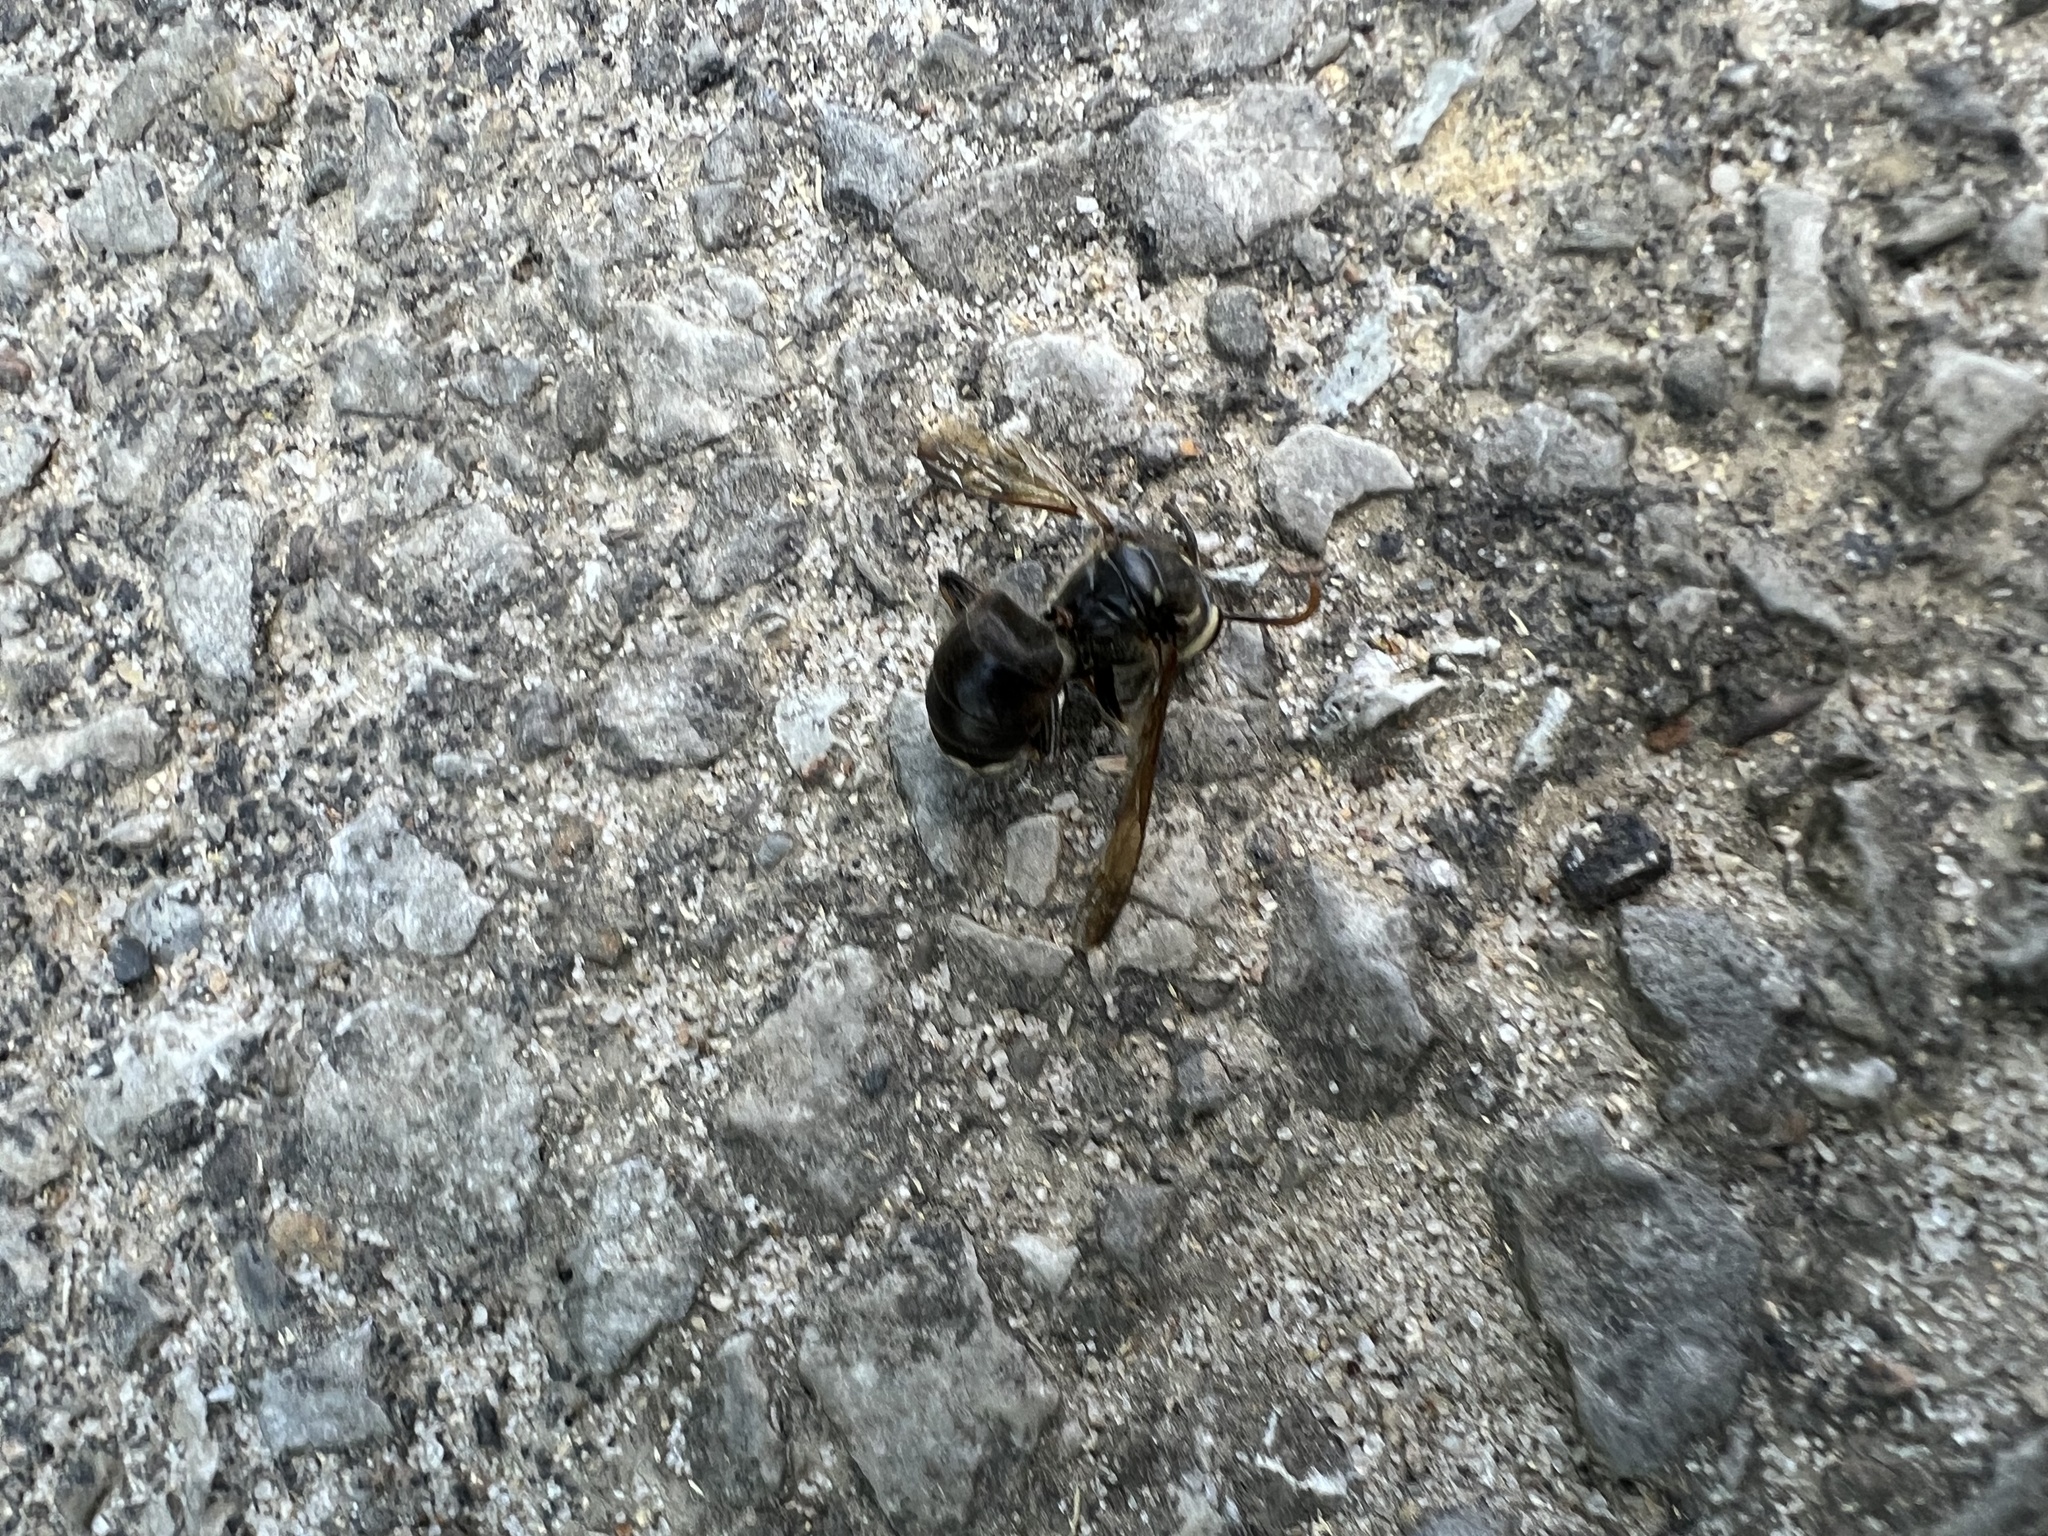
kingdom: Animalia
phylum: Arthropoda
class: Insecta
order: Hymenoptera
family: Vespidae
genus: Dolichovespula
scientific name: Dolichovespula maculata
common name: Bald-faced hornet
